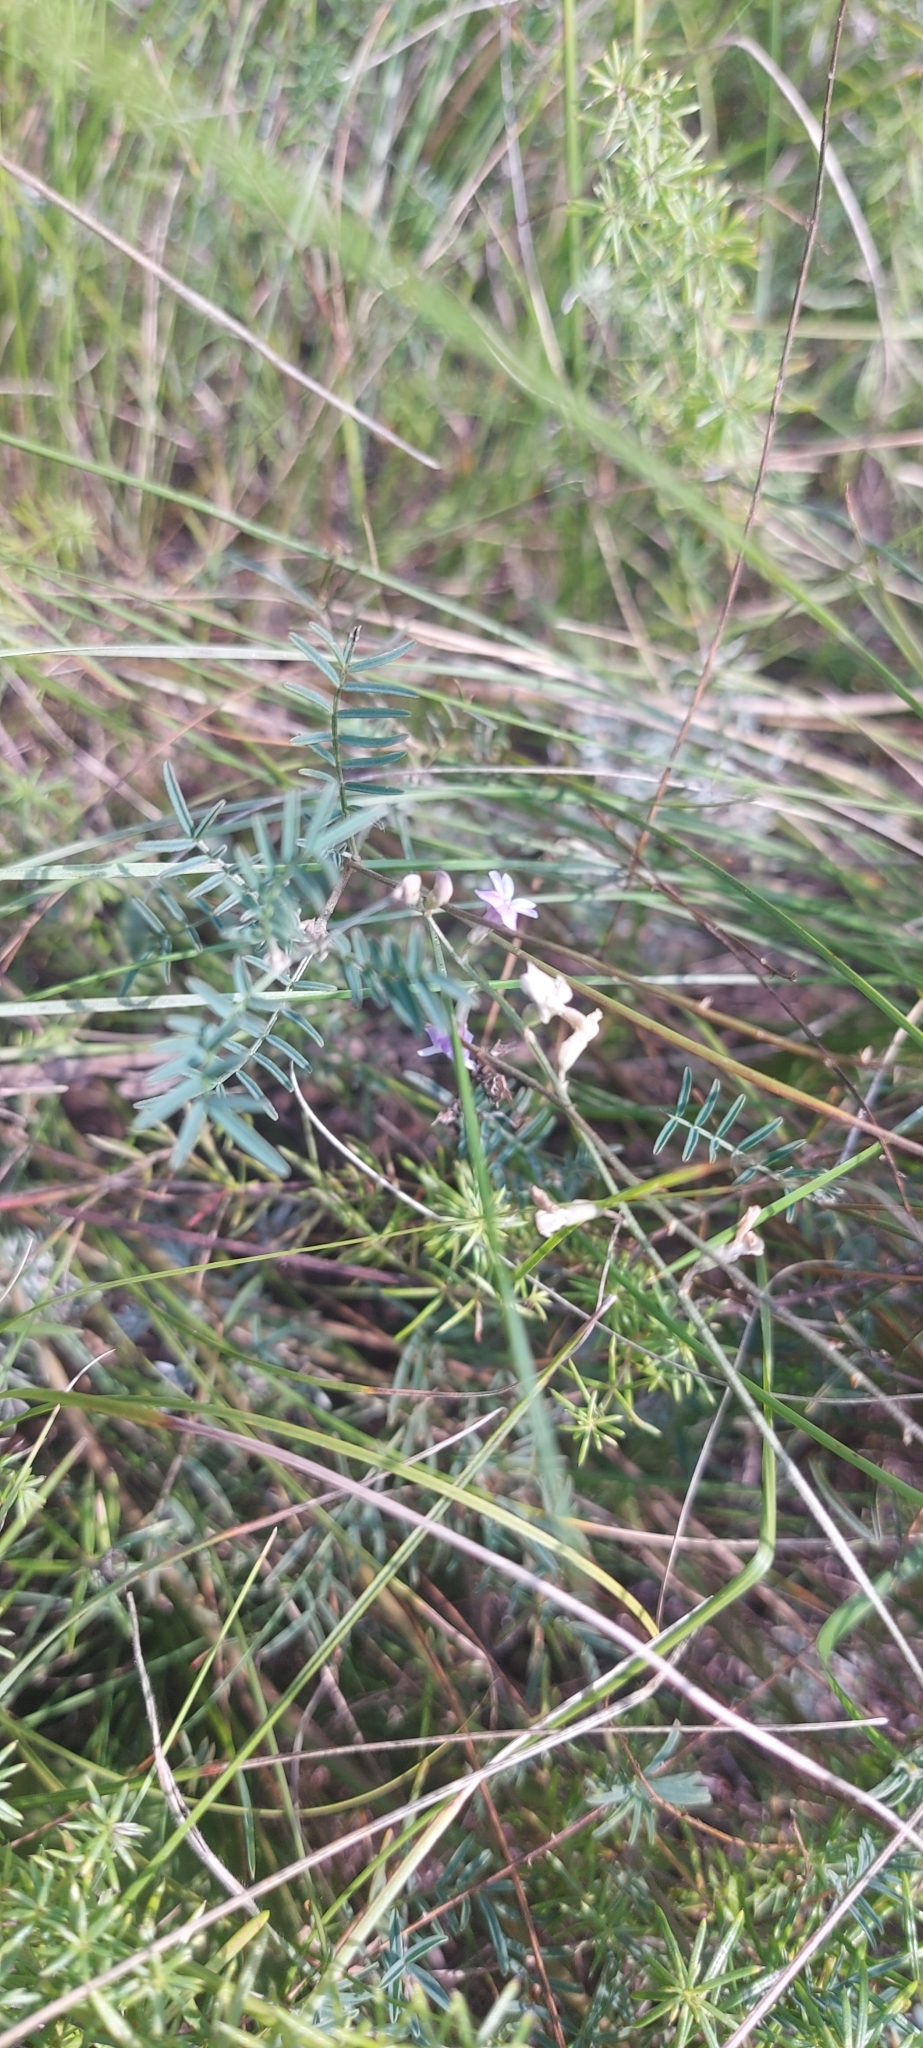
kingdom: Plantae
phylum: Tracheophyta
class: Magnoliopsida
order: Fabales
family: Fabaceae
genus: Astragalus
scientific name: Astragalus austriacus
